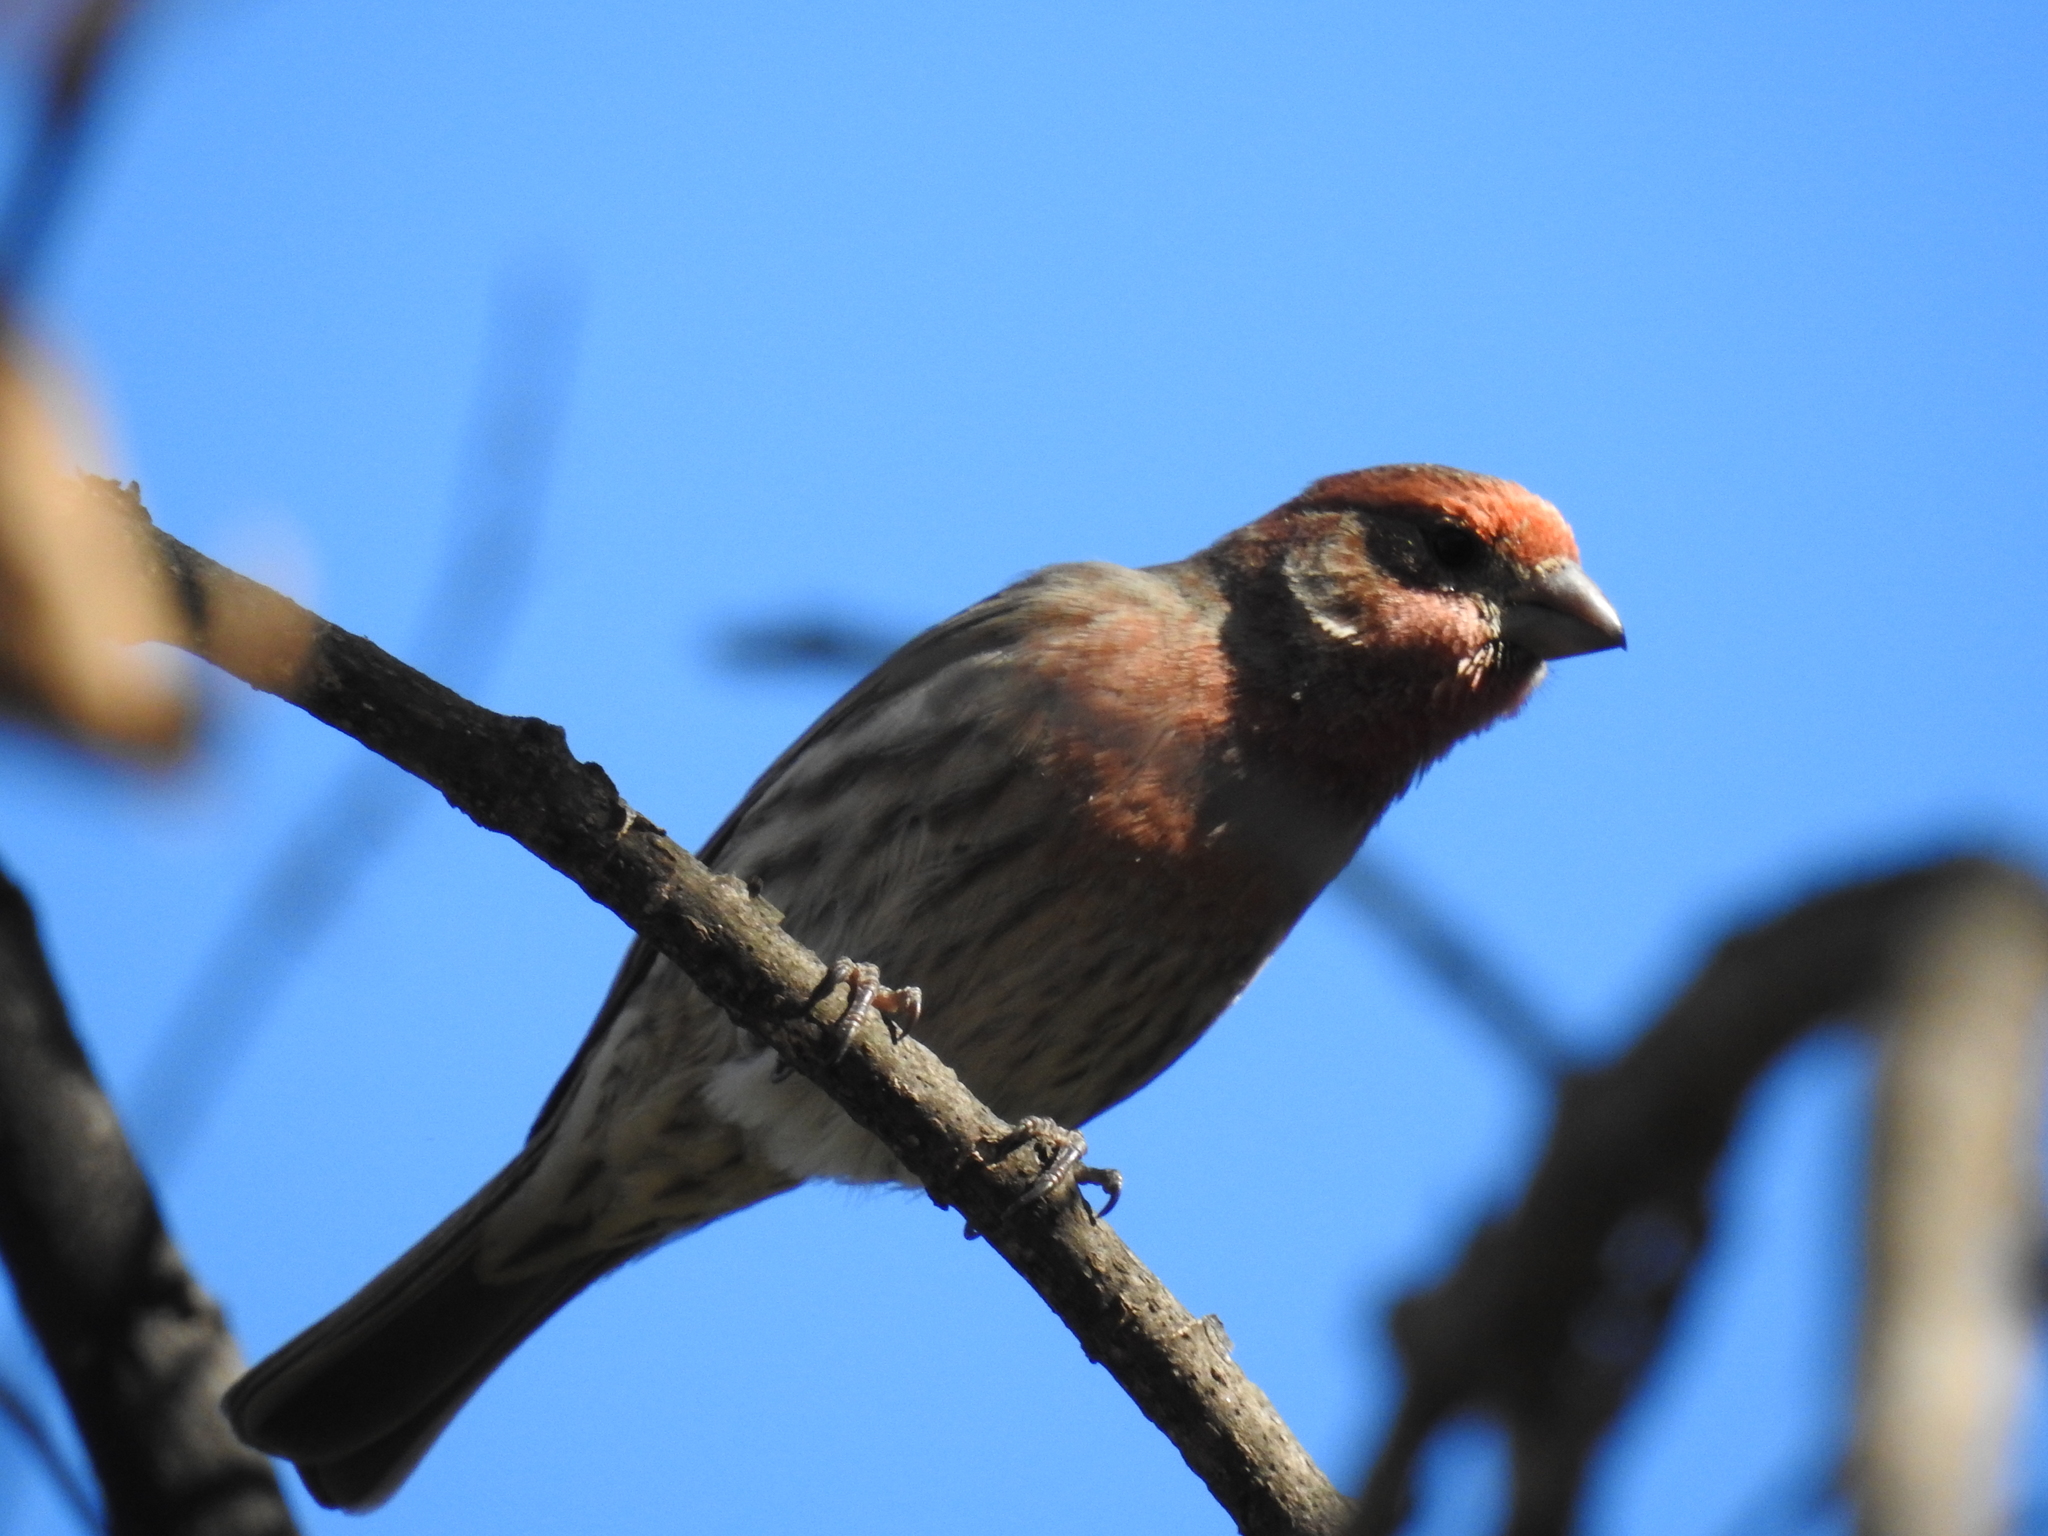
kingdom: Animalia
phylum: Chordata
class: Aves
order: Passeriformes
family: Fringillidae
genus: Haemorhous
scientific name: Haemorhous mexicanus
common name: House finch
